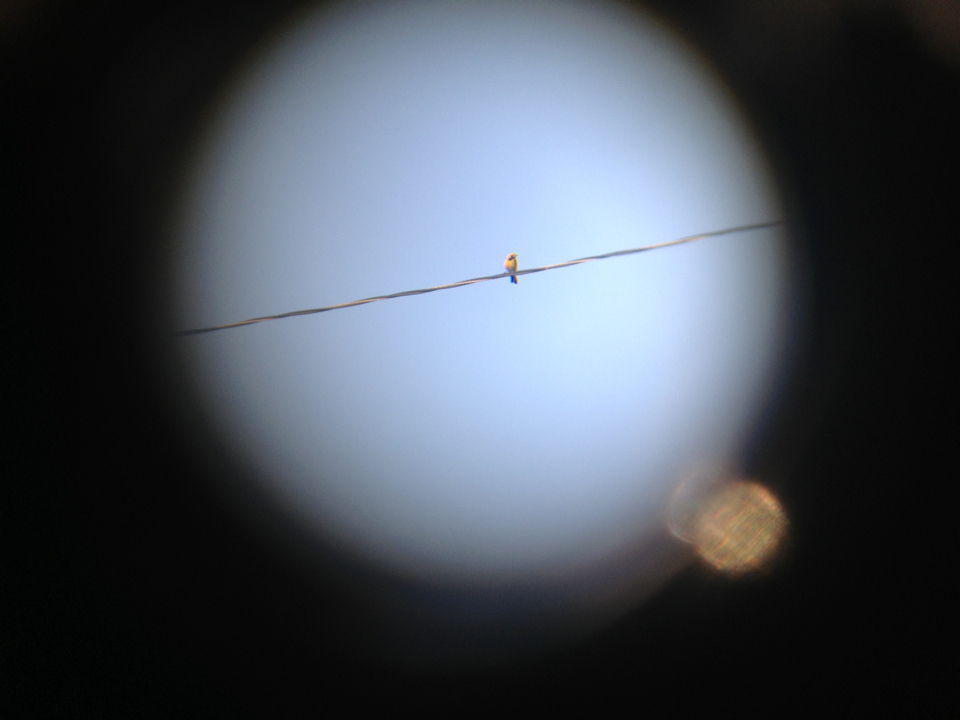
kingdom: Animalia
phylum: Chordata
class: Aves
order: Passeriformes
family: Icteridae
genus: Icterus
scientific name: Icterus cucullatus
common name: Hooded oriole
